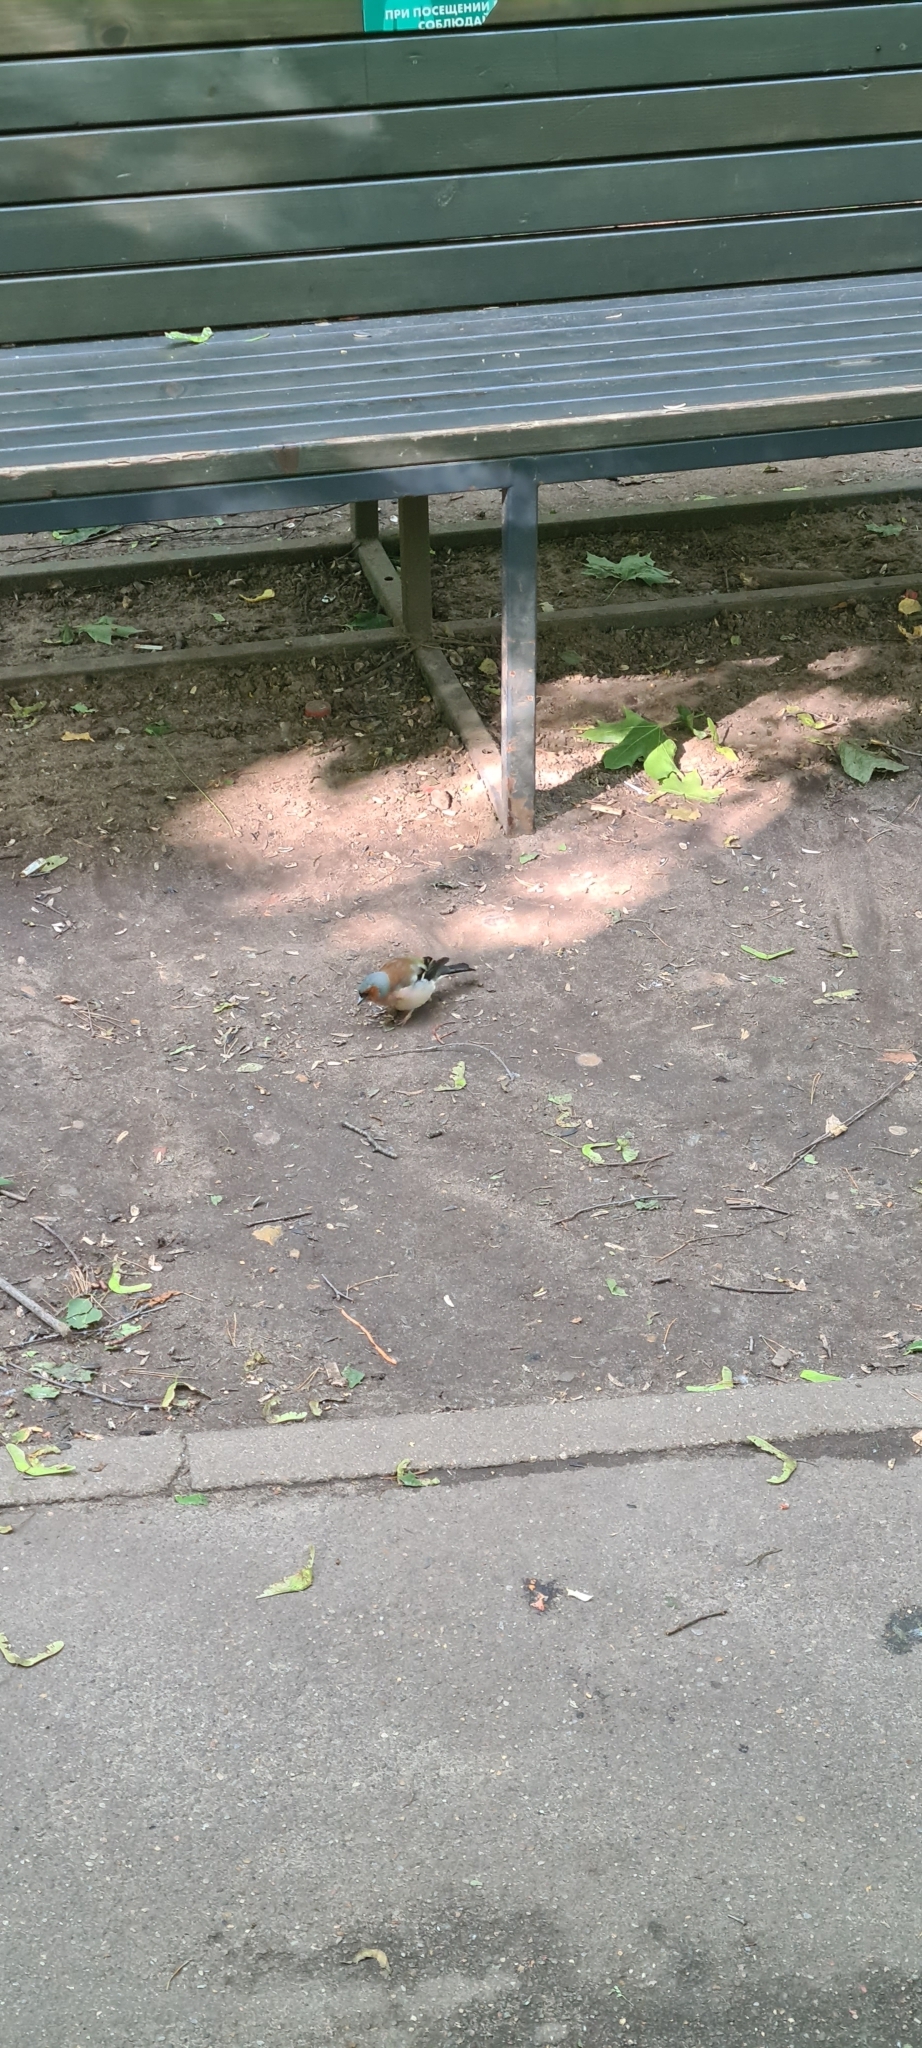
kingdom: Animalia
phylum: Chordata
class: Aves
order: Passeriformes
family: Fringillidae
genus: Fringilla
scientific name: Fringilla coelebs
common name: Common chaffinch
